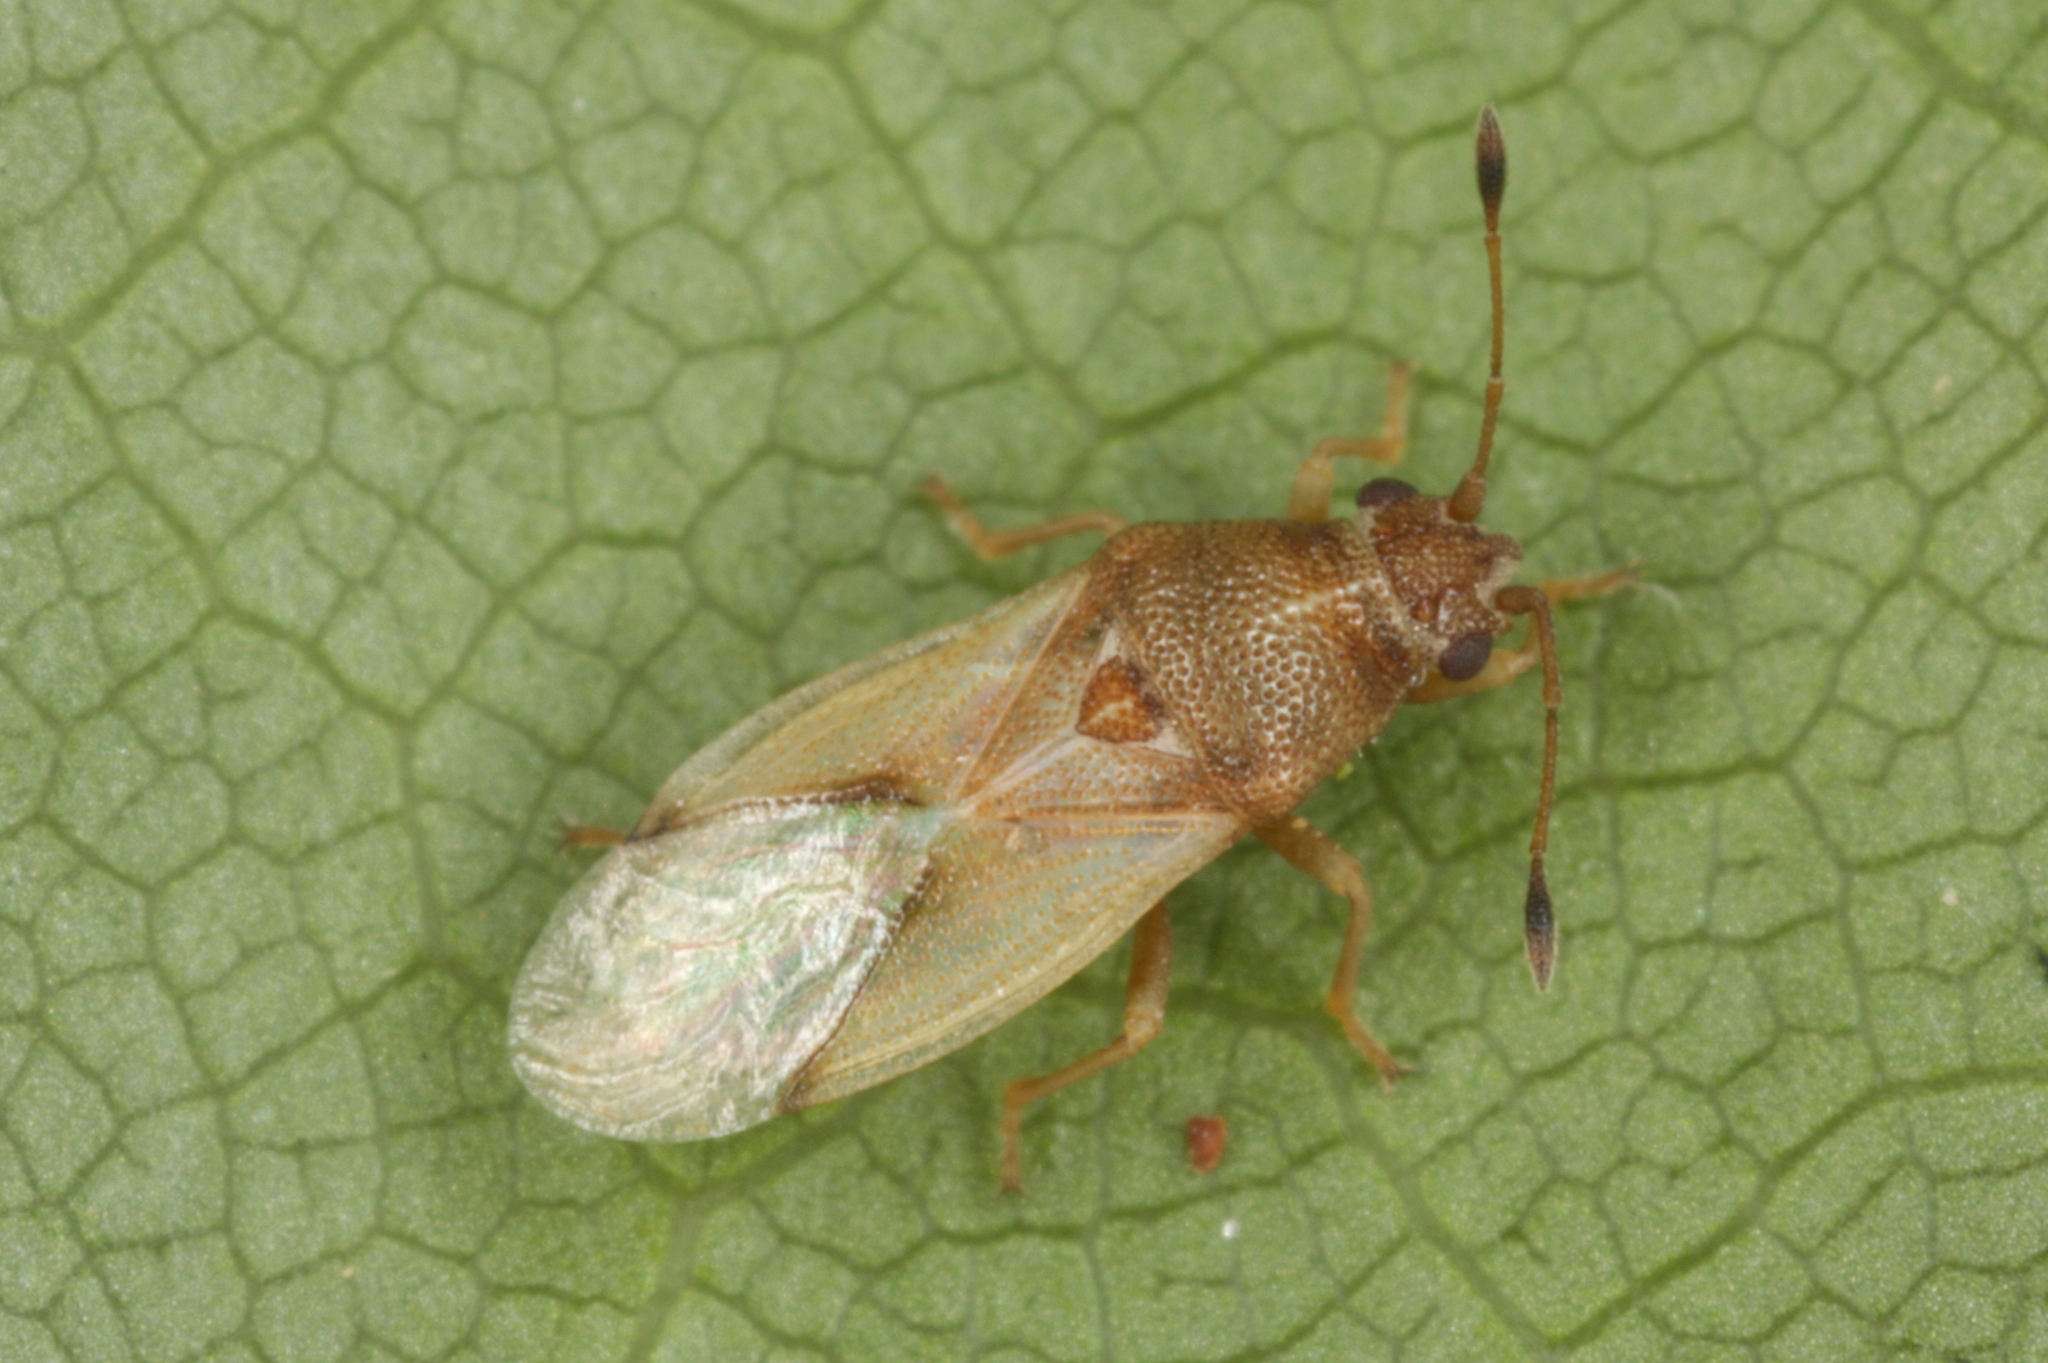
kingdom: Animalia
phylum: Arthropoda
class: Insecta
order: Hemiptera
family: Cymidae
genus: Cymus
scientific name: Cymus claviculus
